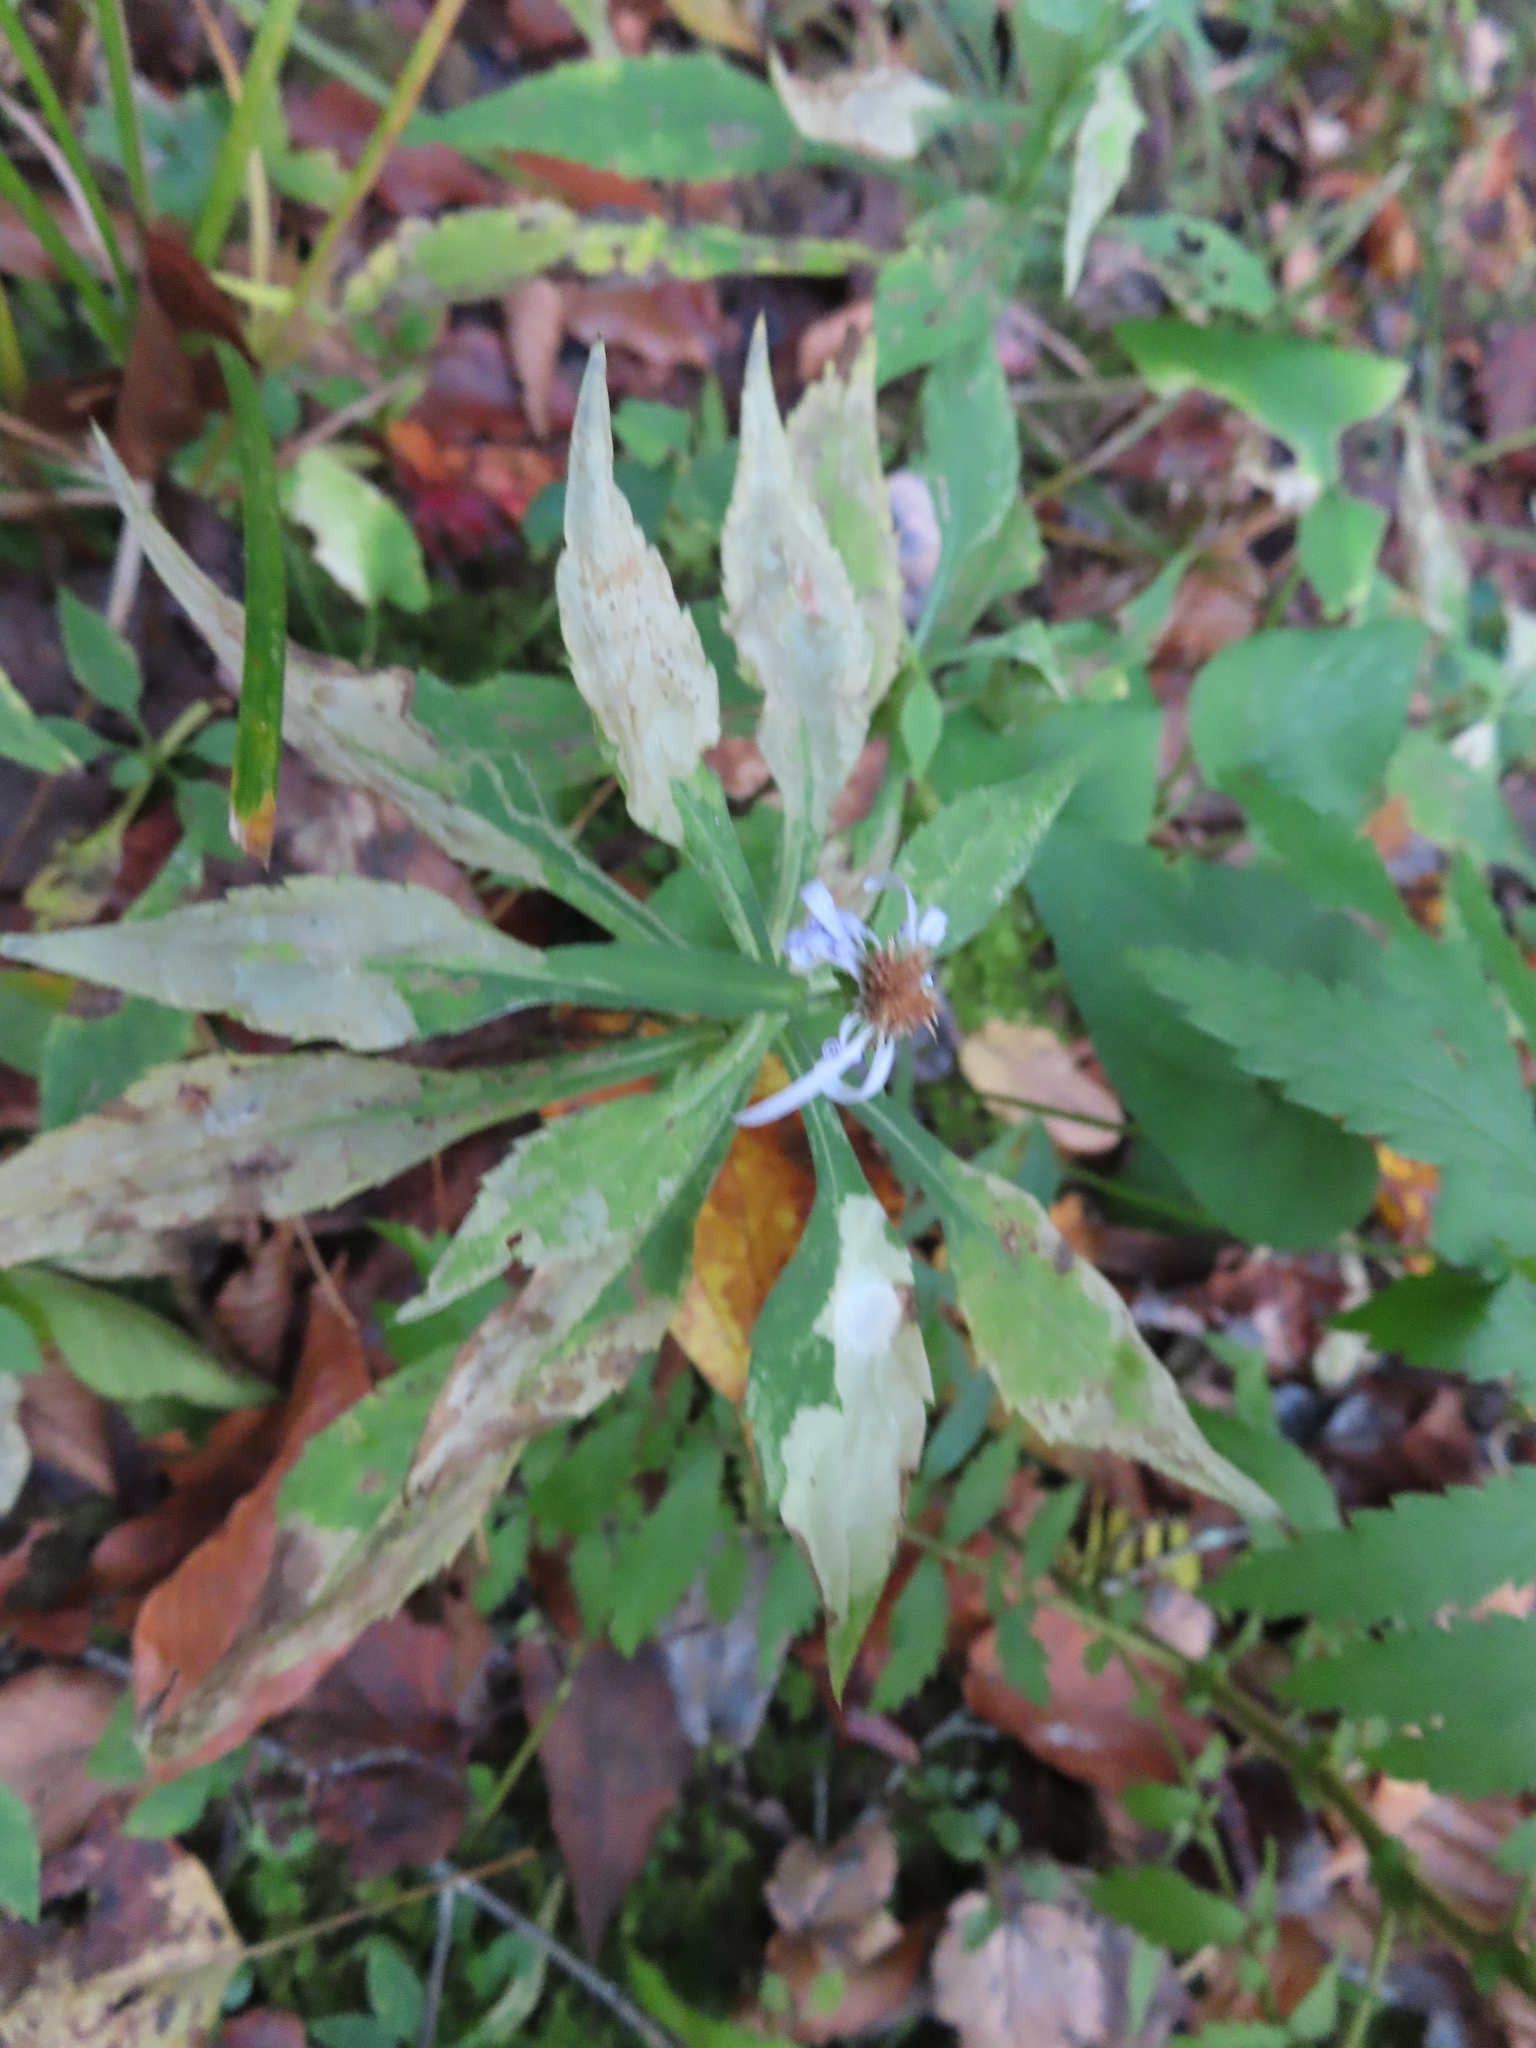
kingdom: Plantae
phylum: Tracheophyta
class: Magnoliopsida
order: Asterales
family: Asteraceae
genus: Symphyotrichum
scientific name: Symphyotrichum prenanthoides
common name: Crooked-stem aster
